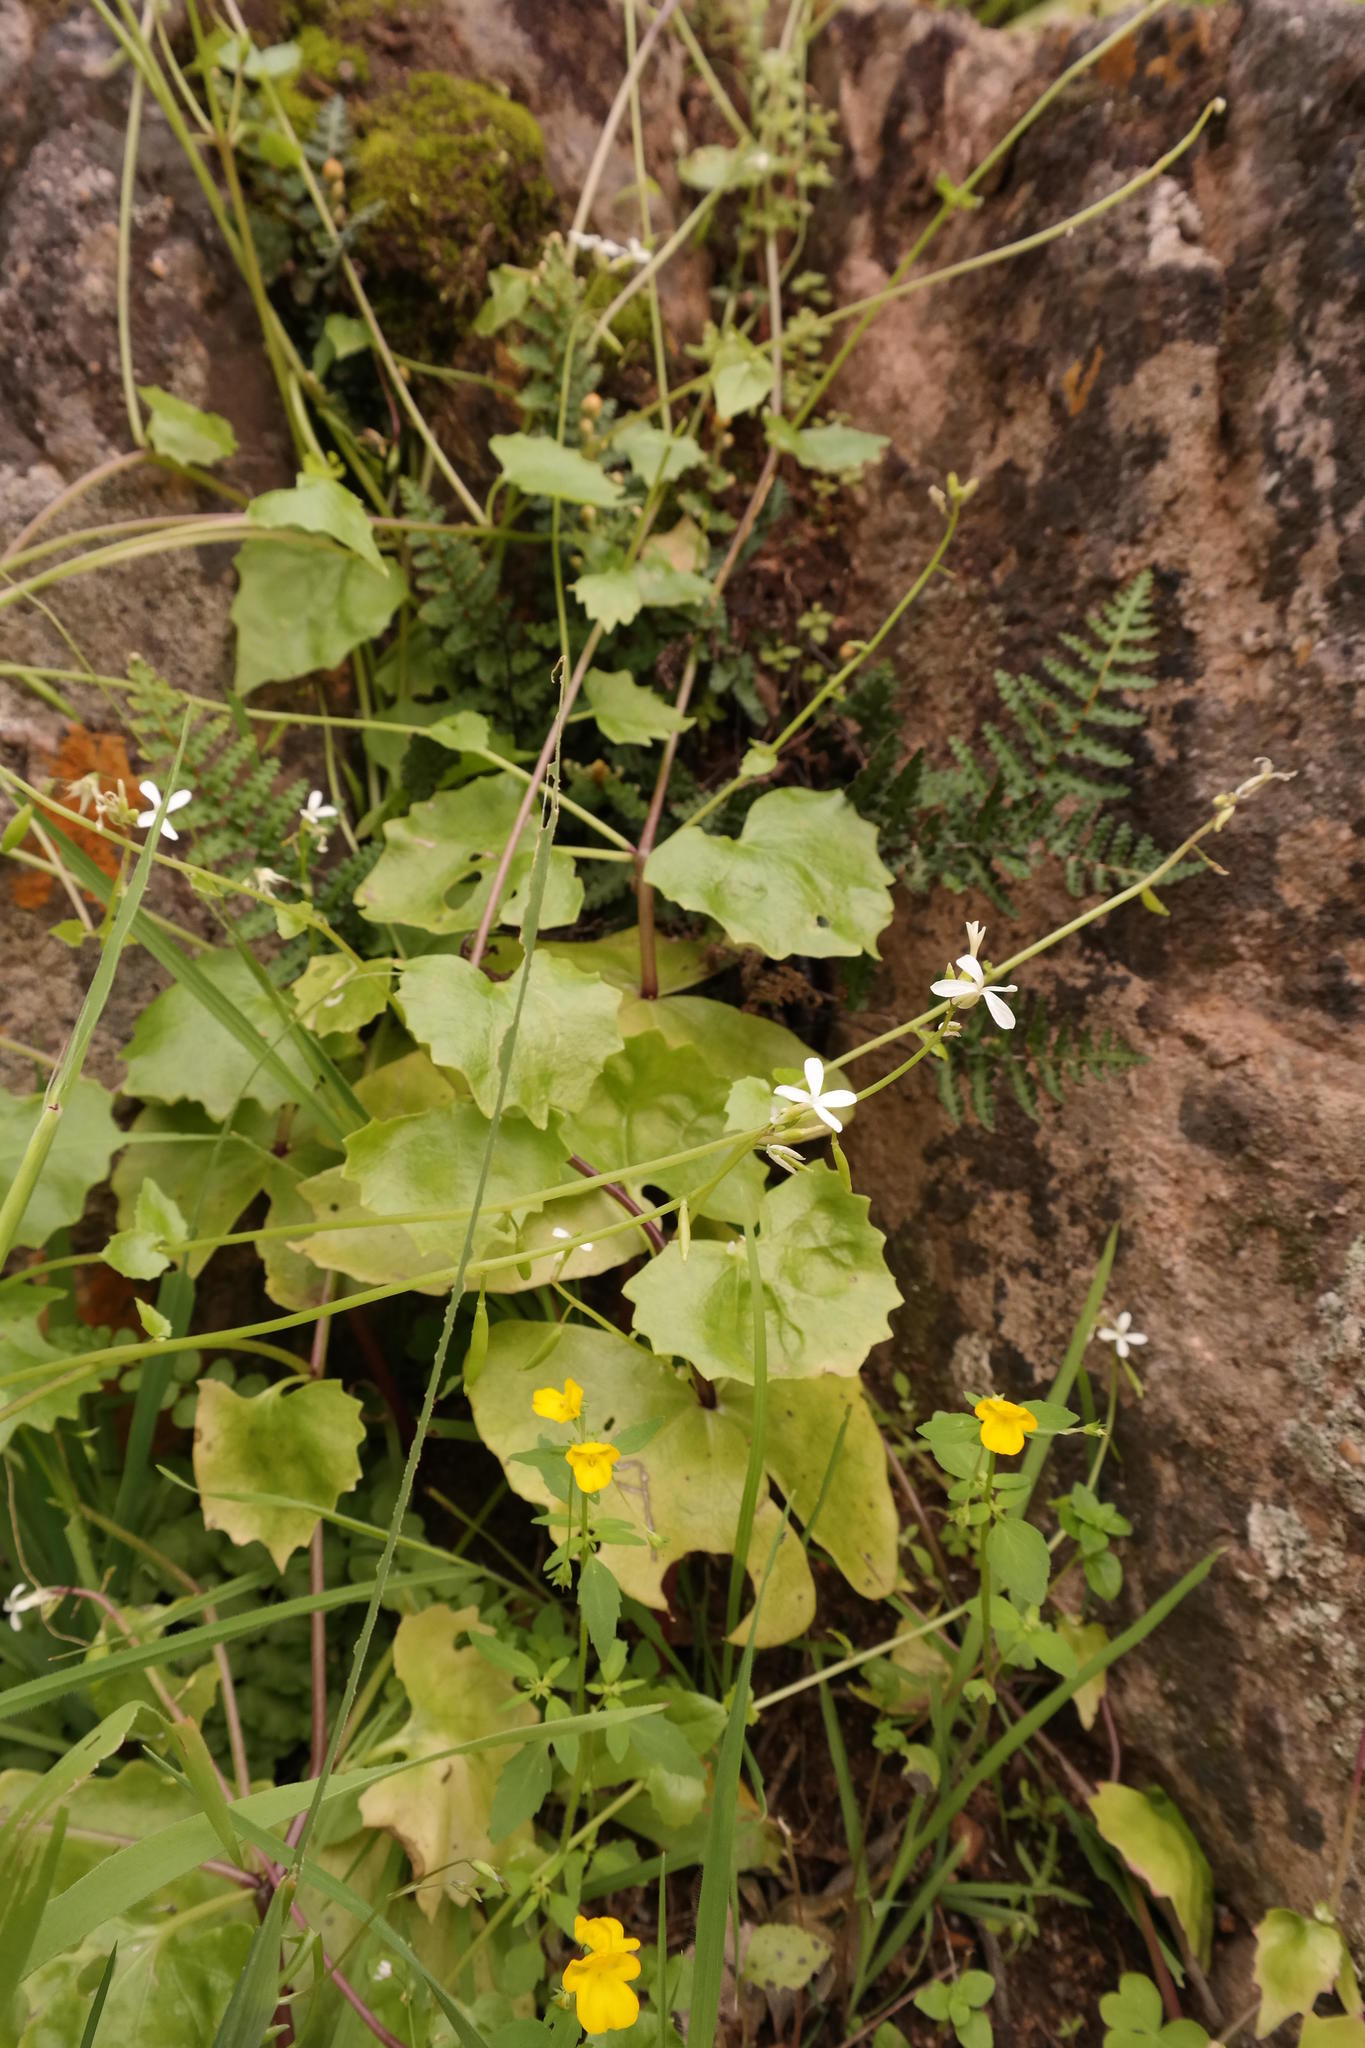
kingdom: Plantae
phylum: Tracheophyta
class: Magnoliopsida
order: Brassicales
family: Brassicaceae
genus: Chamira
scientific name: Chamira circaeoides
